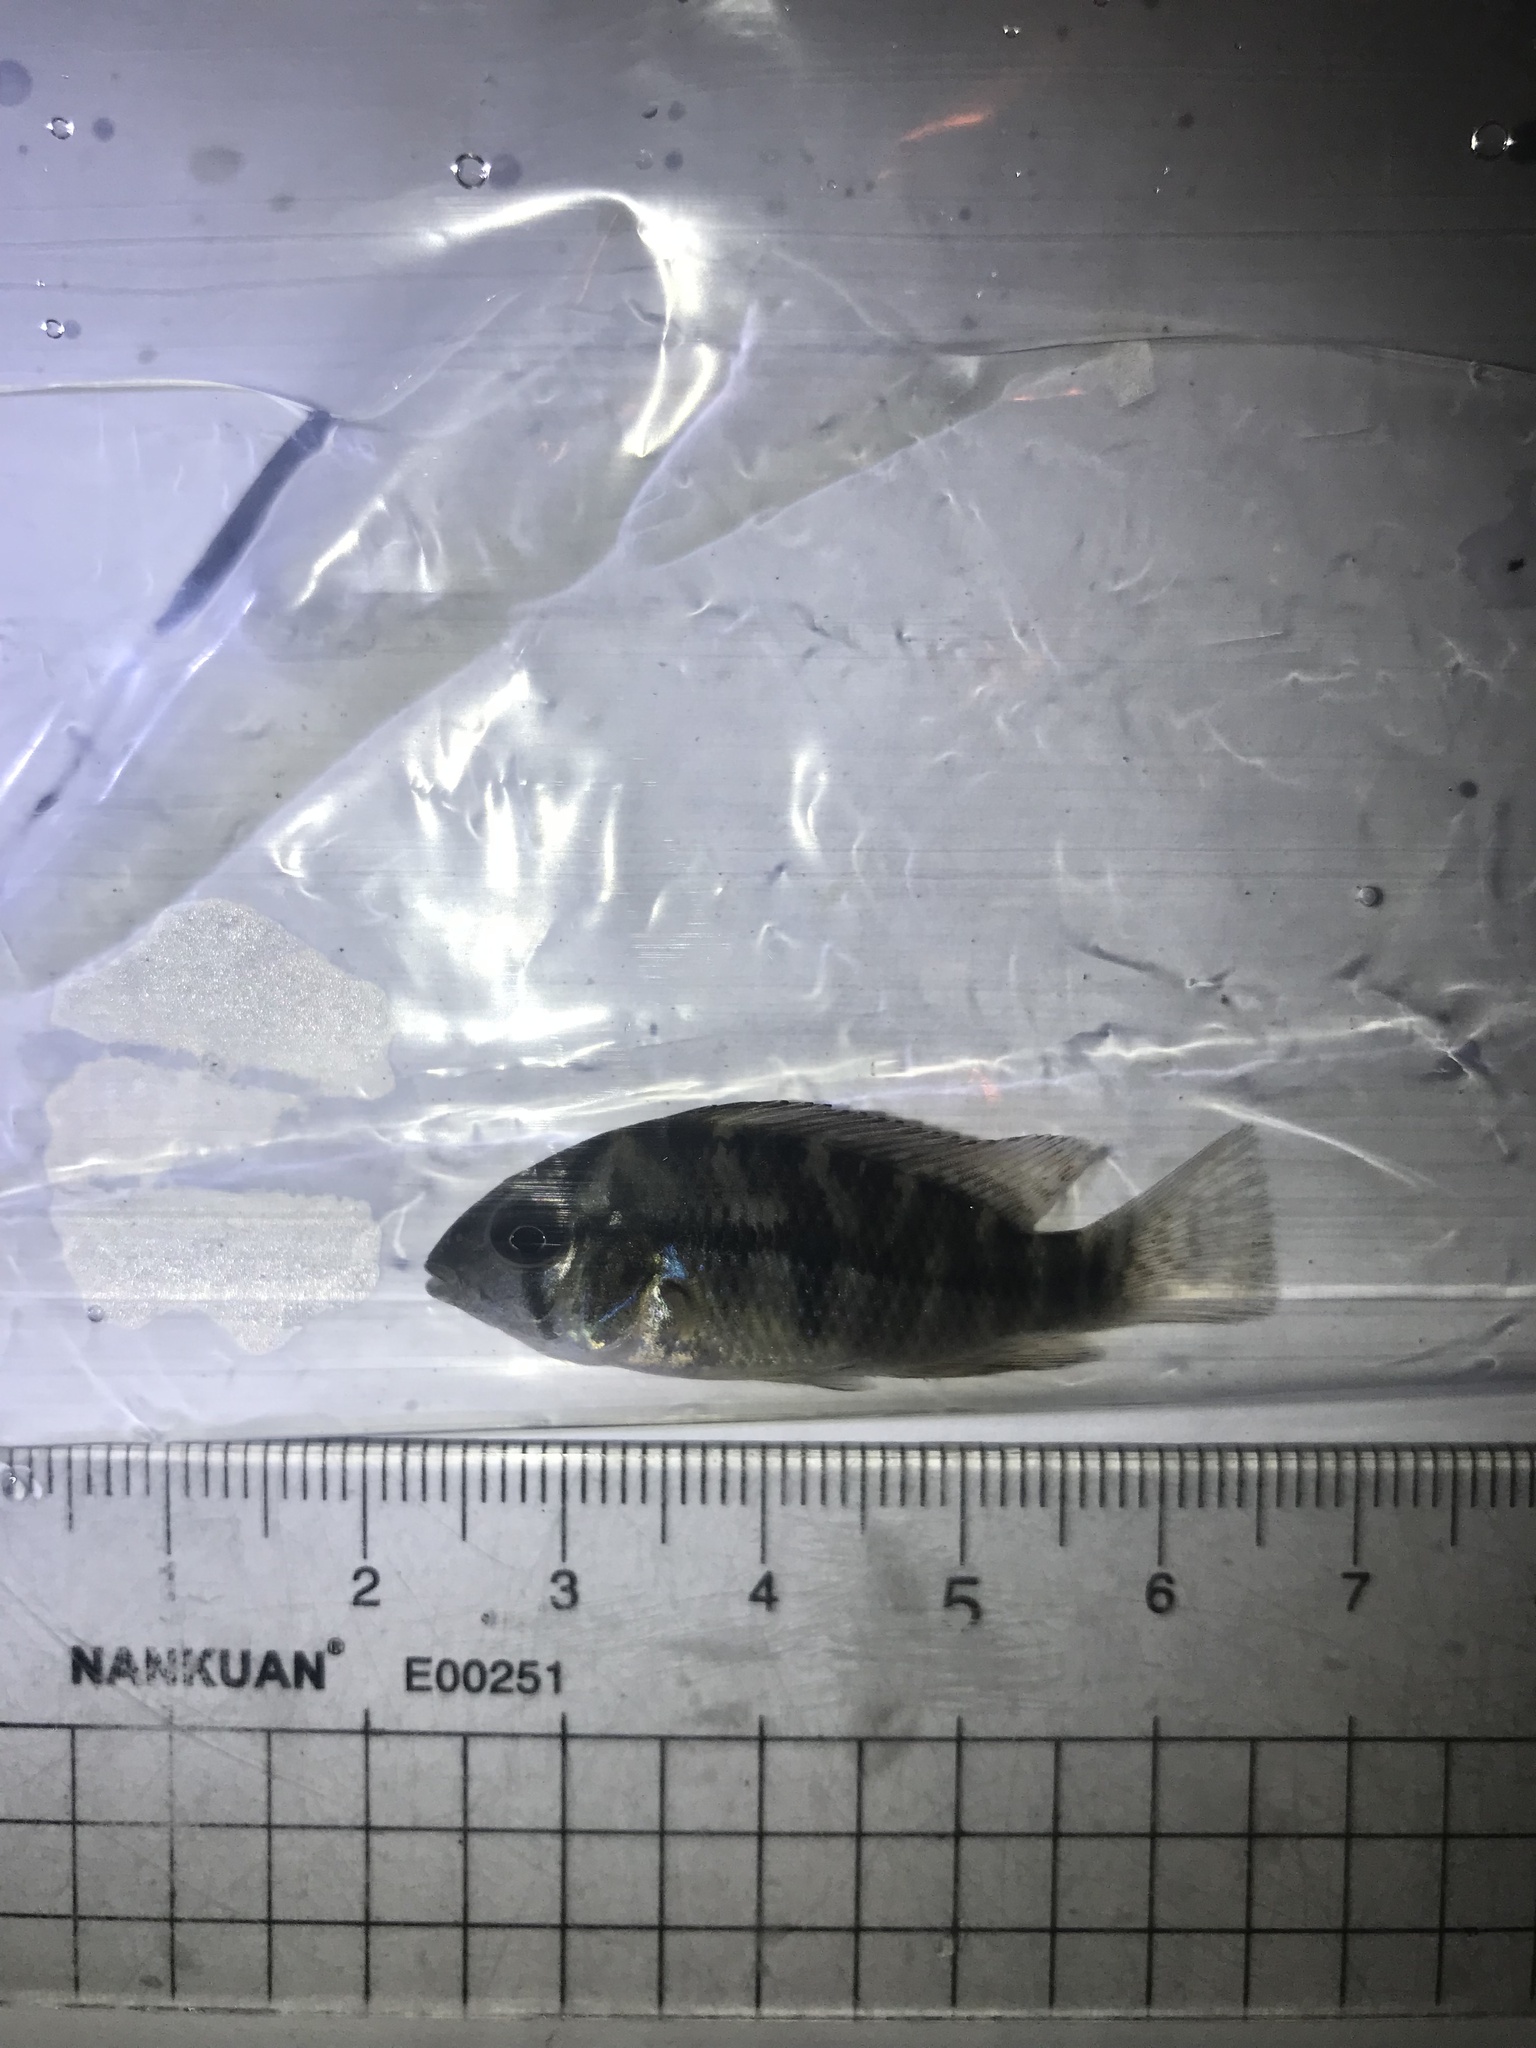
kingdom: Animalia
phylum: Chordata
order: Perciformes
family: Cichlidae
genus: Geophagus
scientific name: Geophagus brasiliensis
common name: Braziliensis
